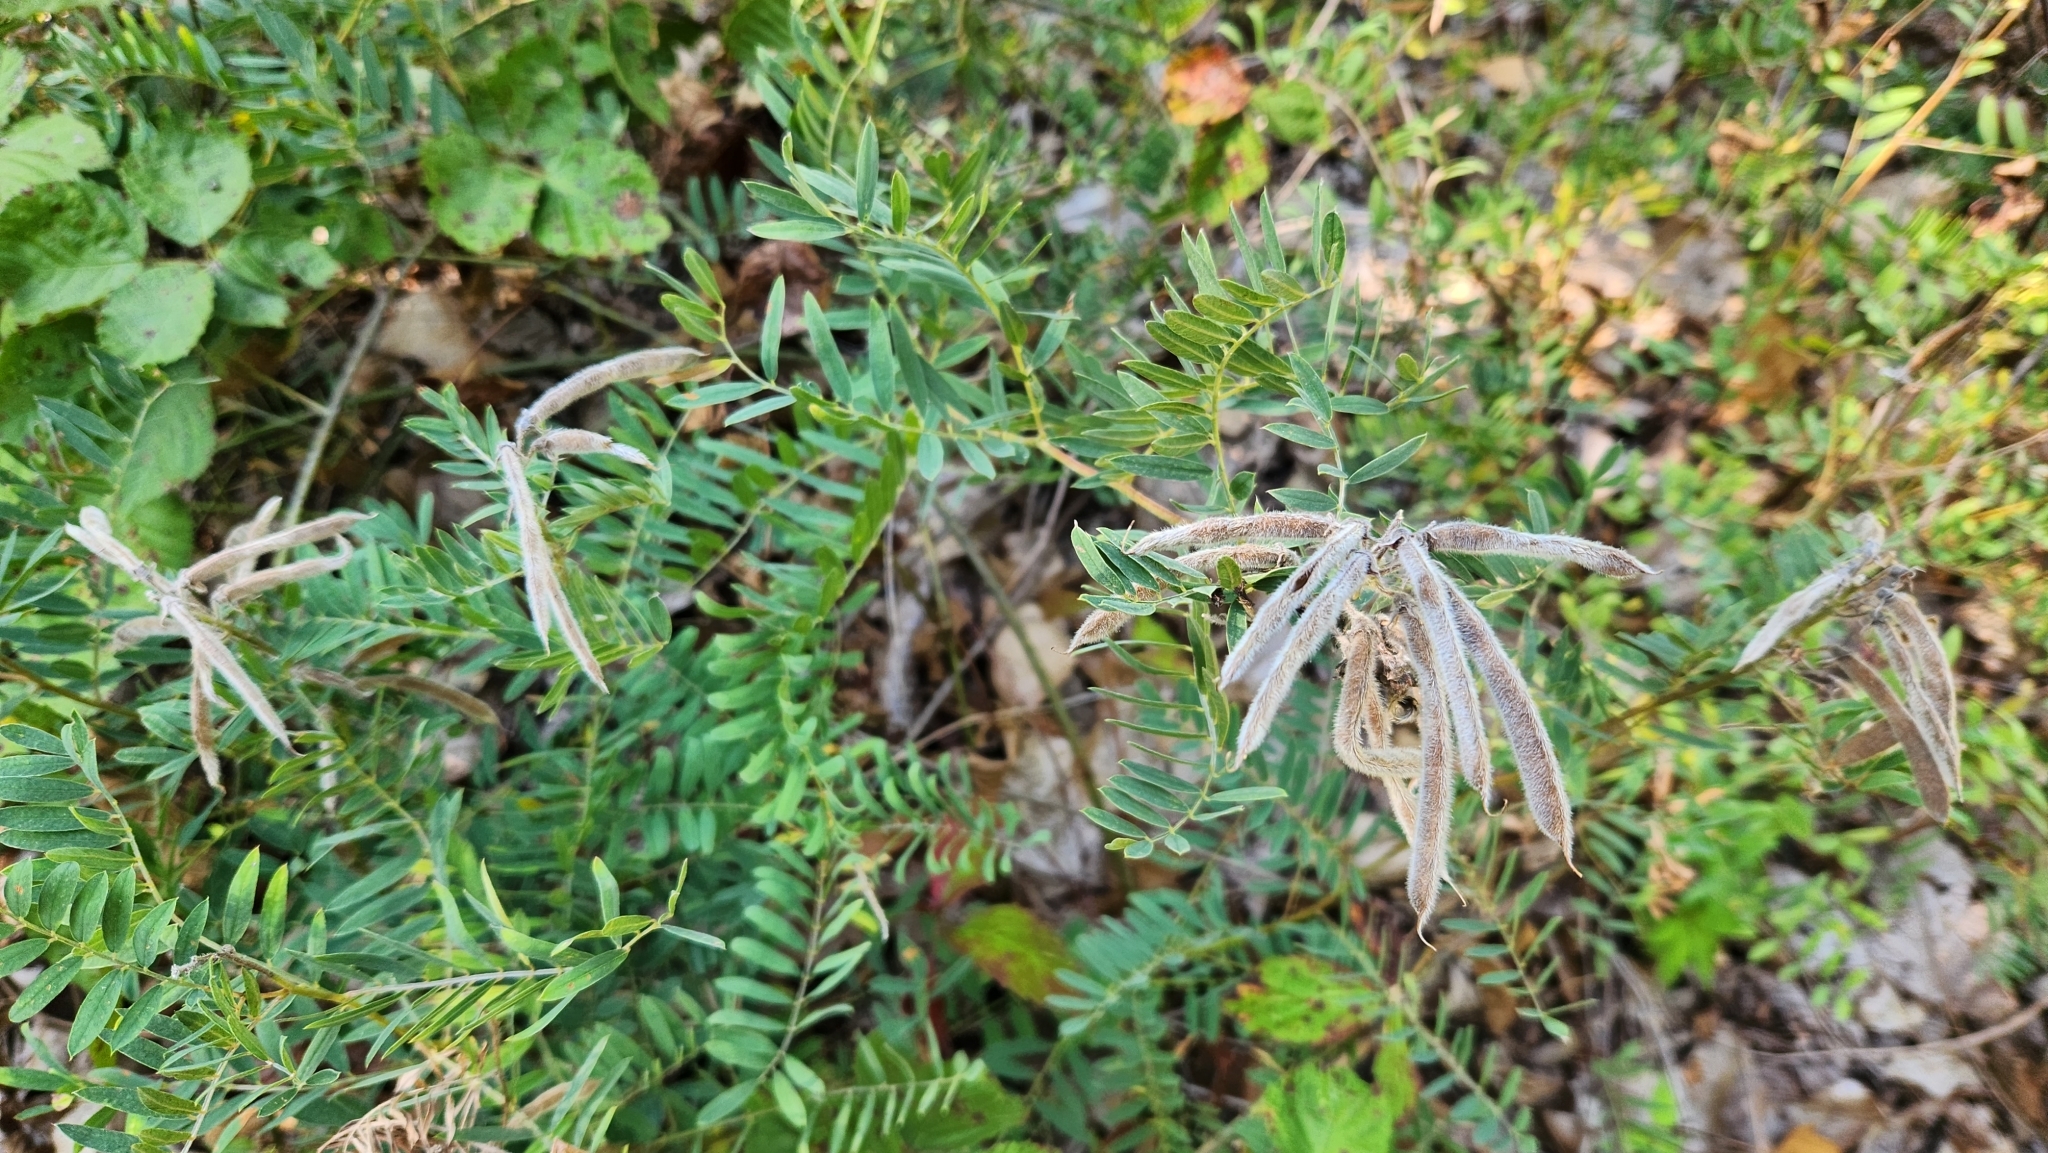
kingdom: Plantae
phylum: Tracheophyta
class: Magnoliopsida
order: Fabales
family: Fabaceae
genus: Tephrosia
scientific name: Tephrosia virginiana
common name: Rabbit-pea
